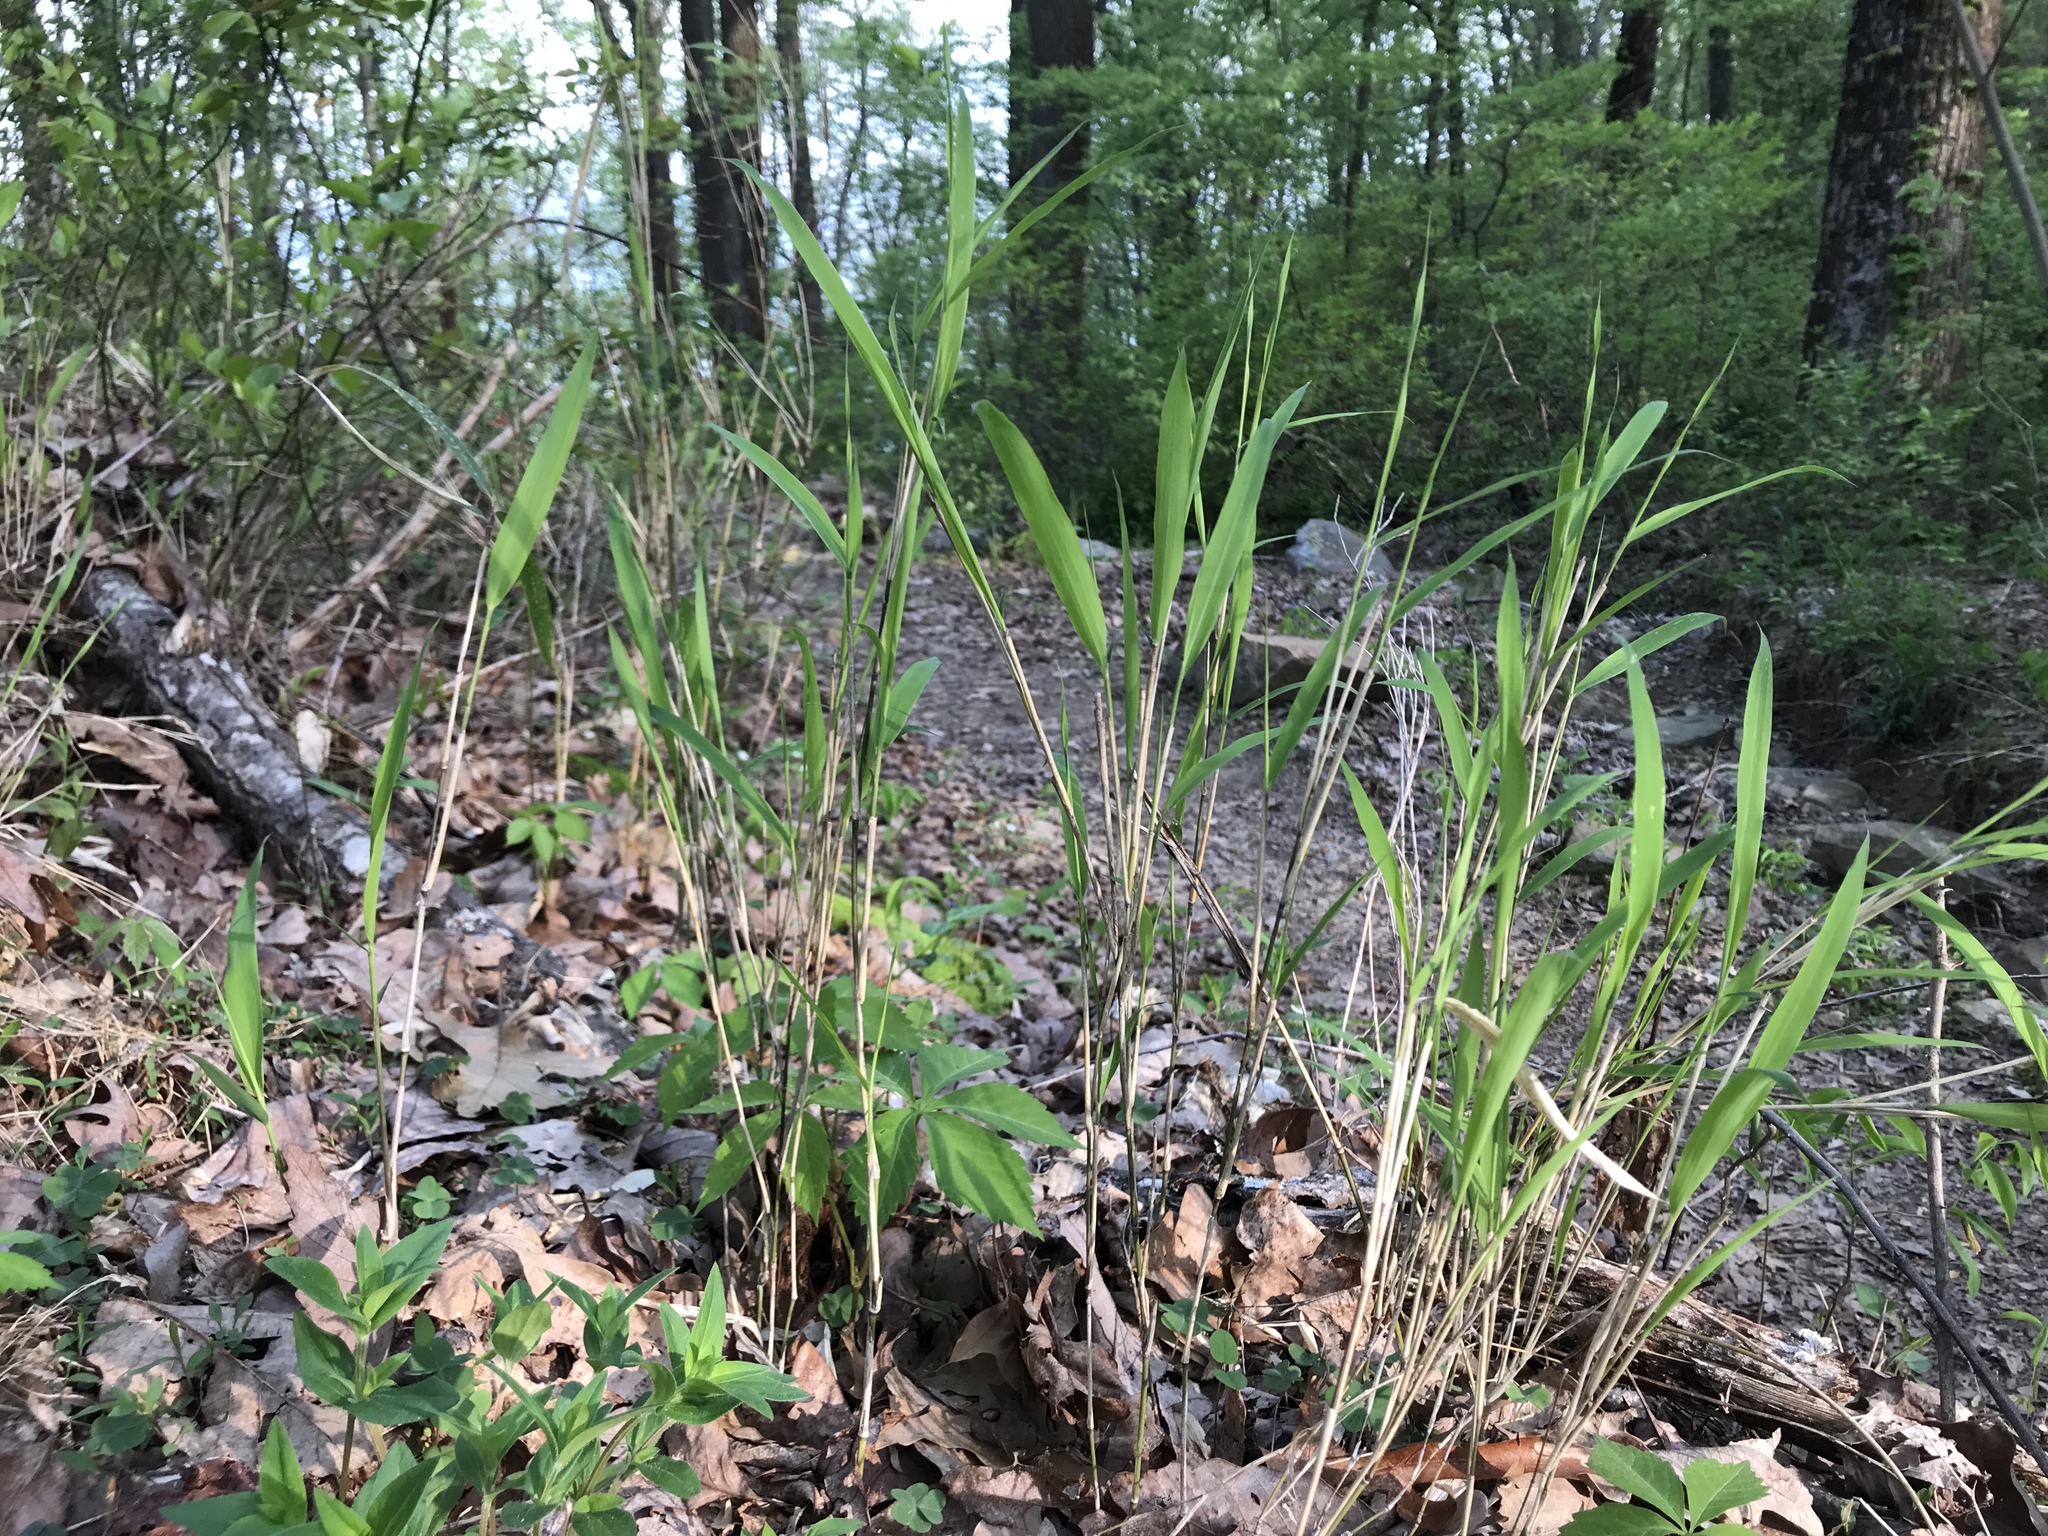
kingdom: Plantae
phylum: Tracheophyta
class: Liliopsida
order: Poales
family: Poaceae
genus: Arundinaria
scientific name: Arundinaria appalachiana
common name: Hill cane
